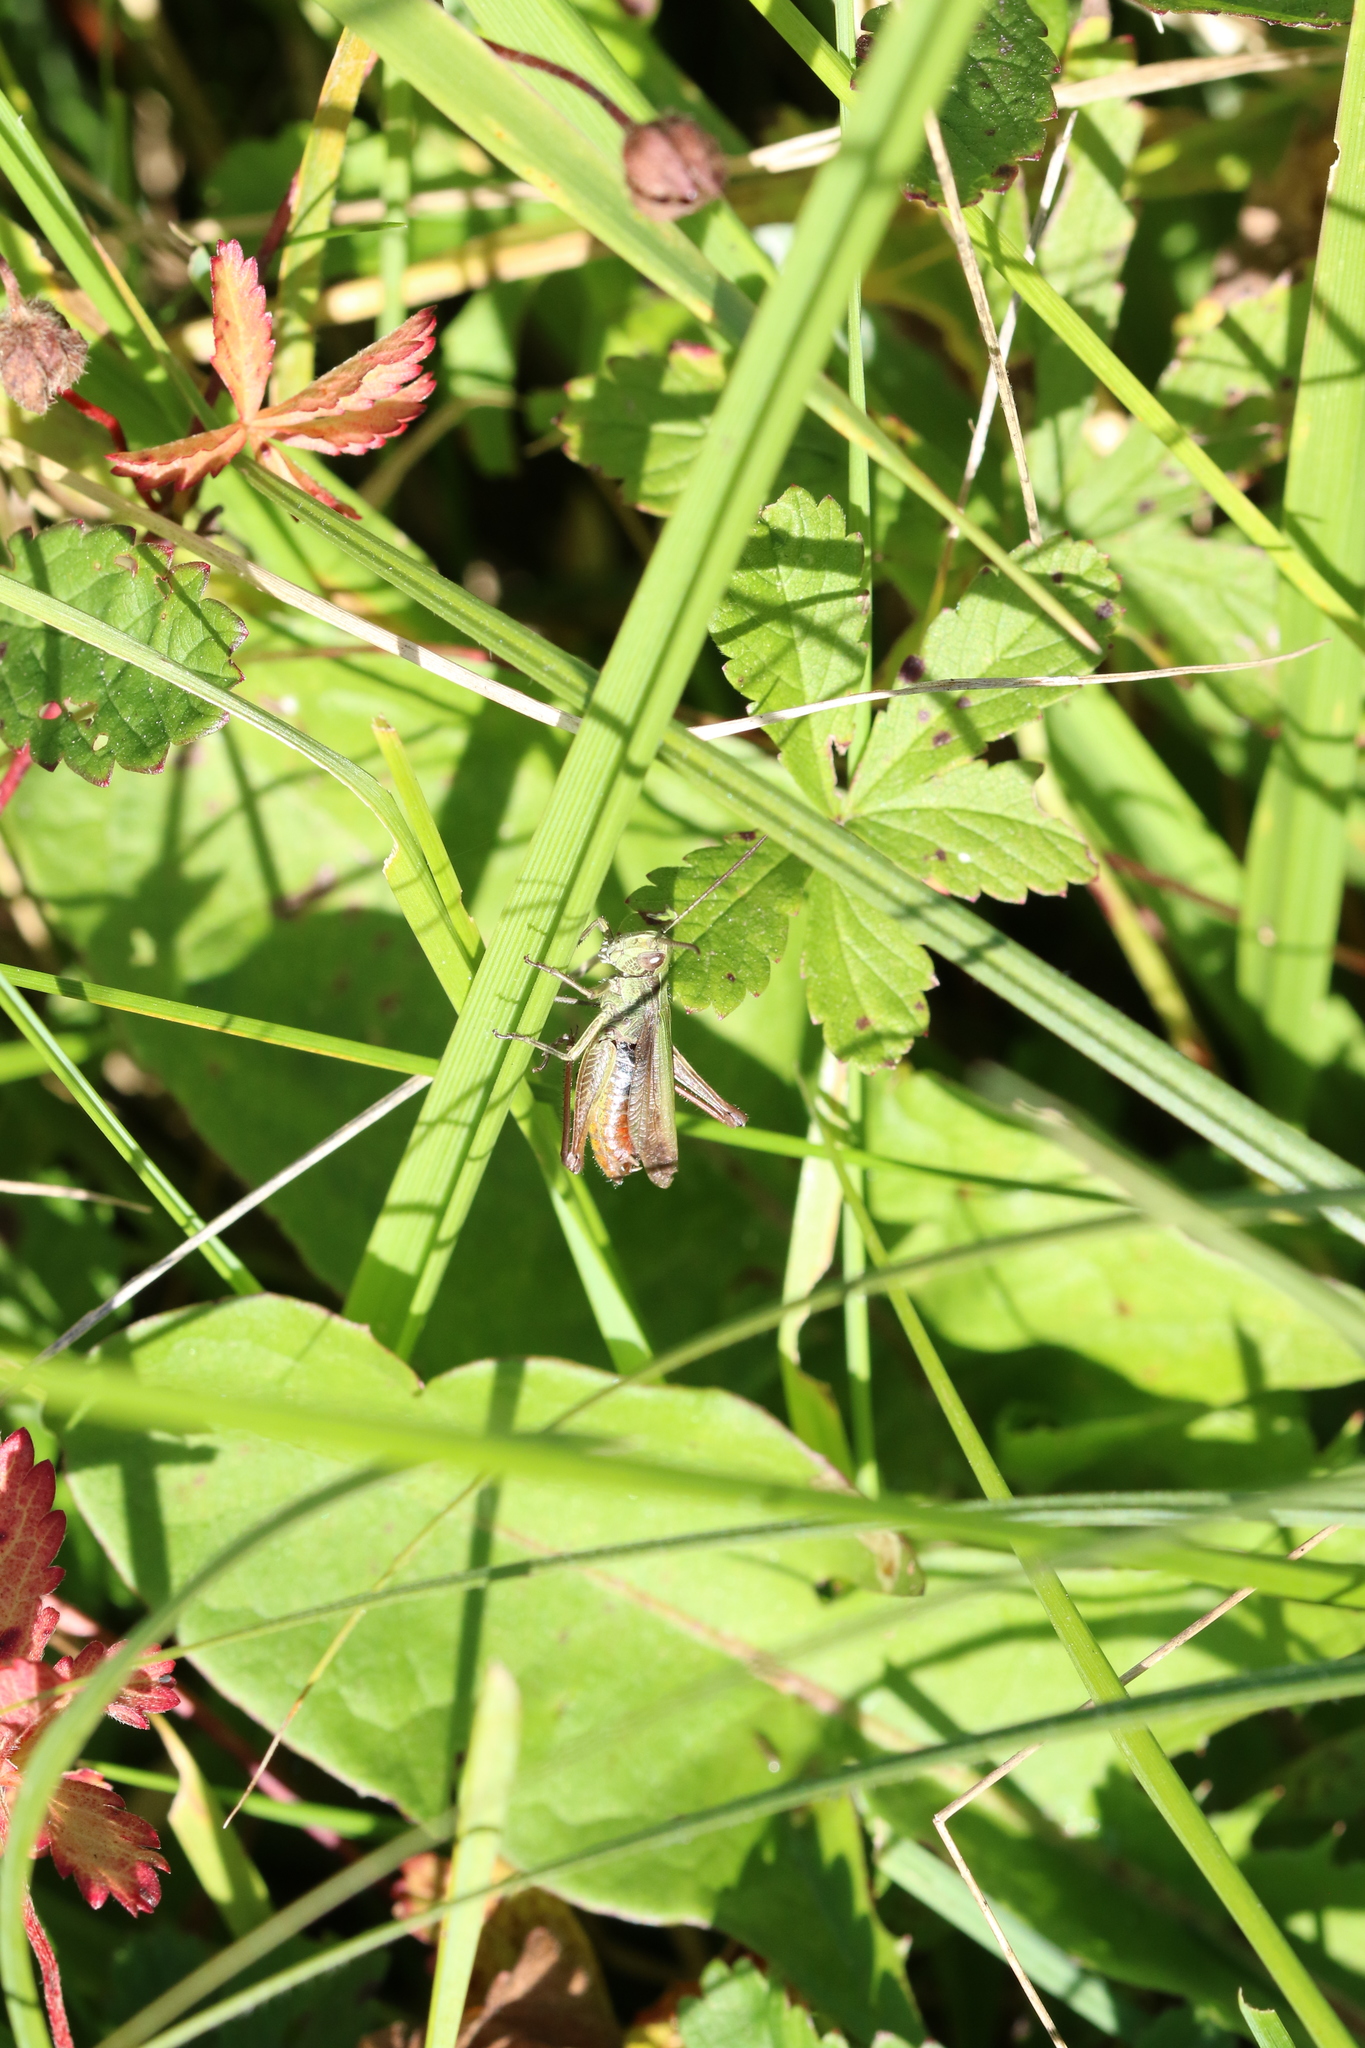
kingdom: Animalia
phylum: Arthropoda
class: Insecta
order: Orthoptera
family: Acrididae
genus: Chorthippus
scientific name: Chorthippus dorsatus
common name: Steppe grasshopper
